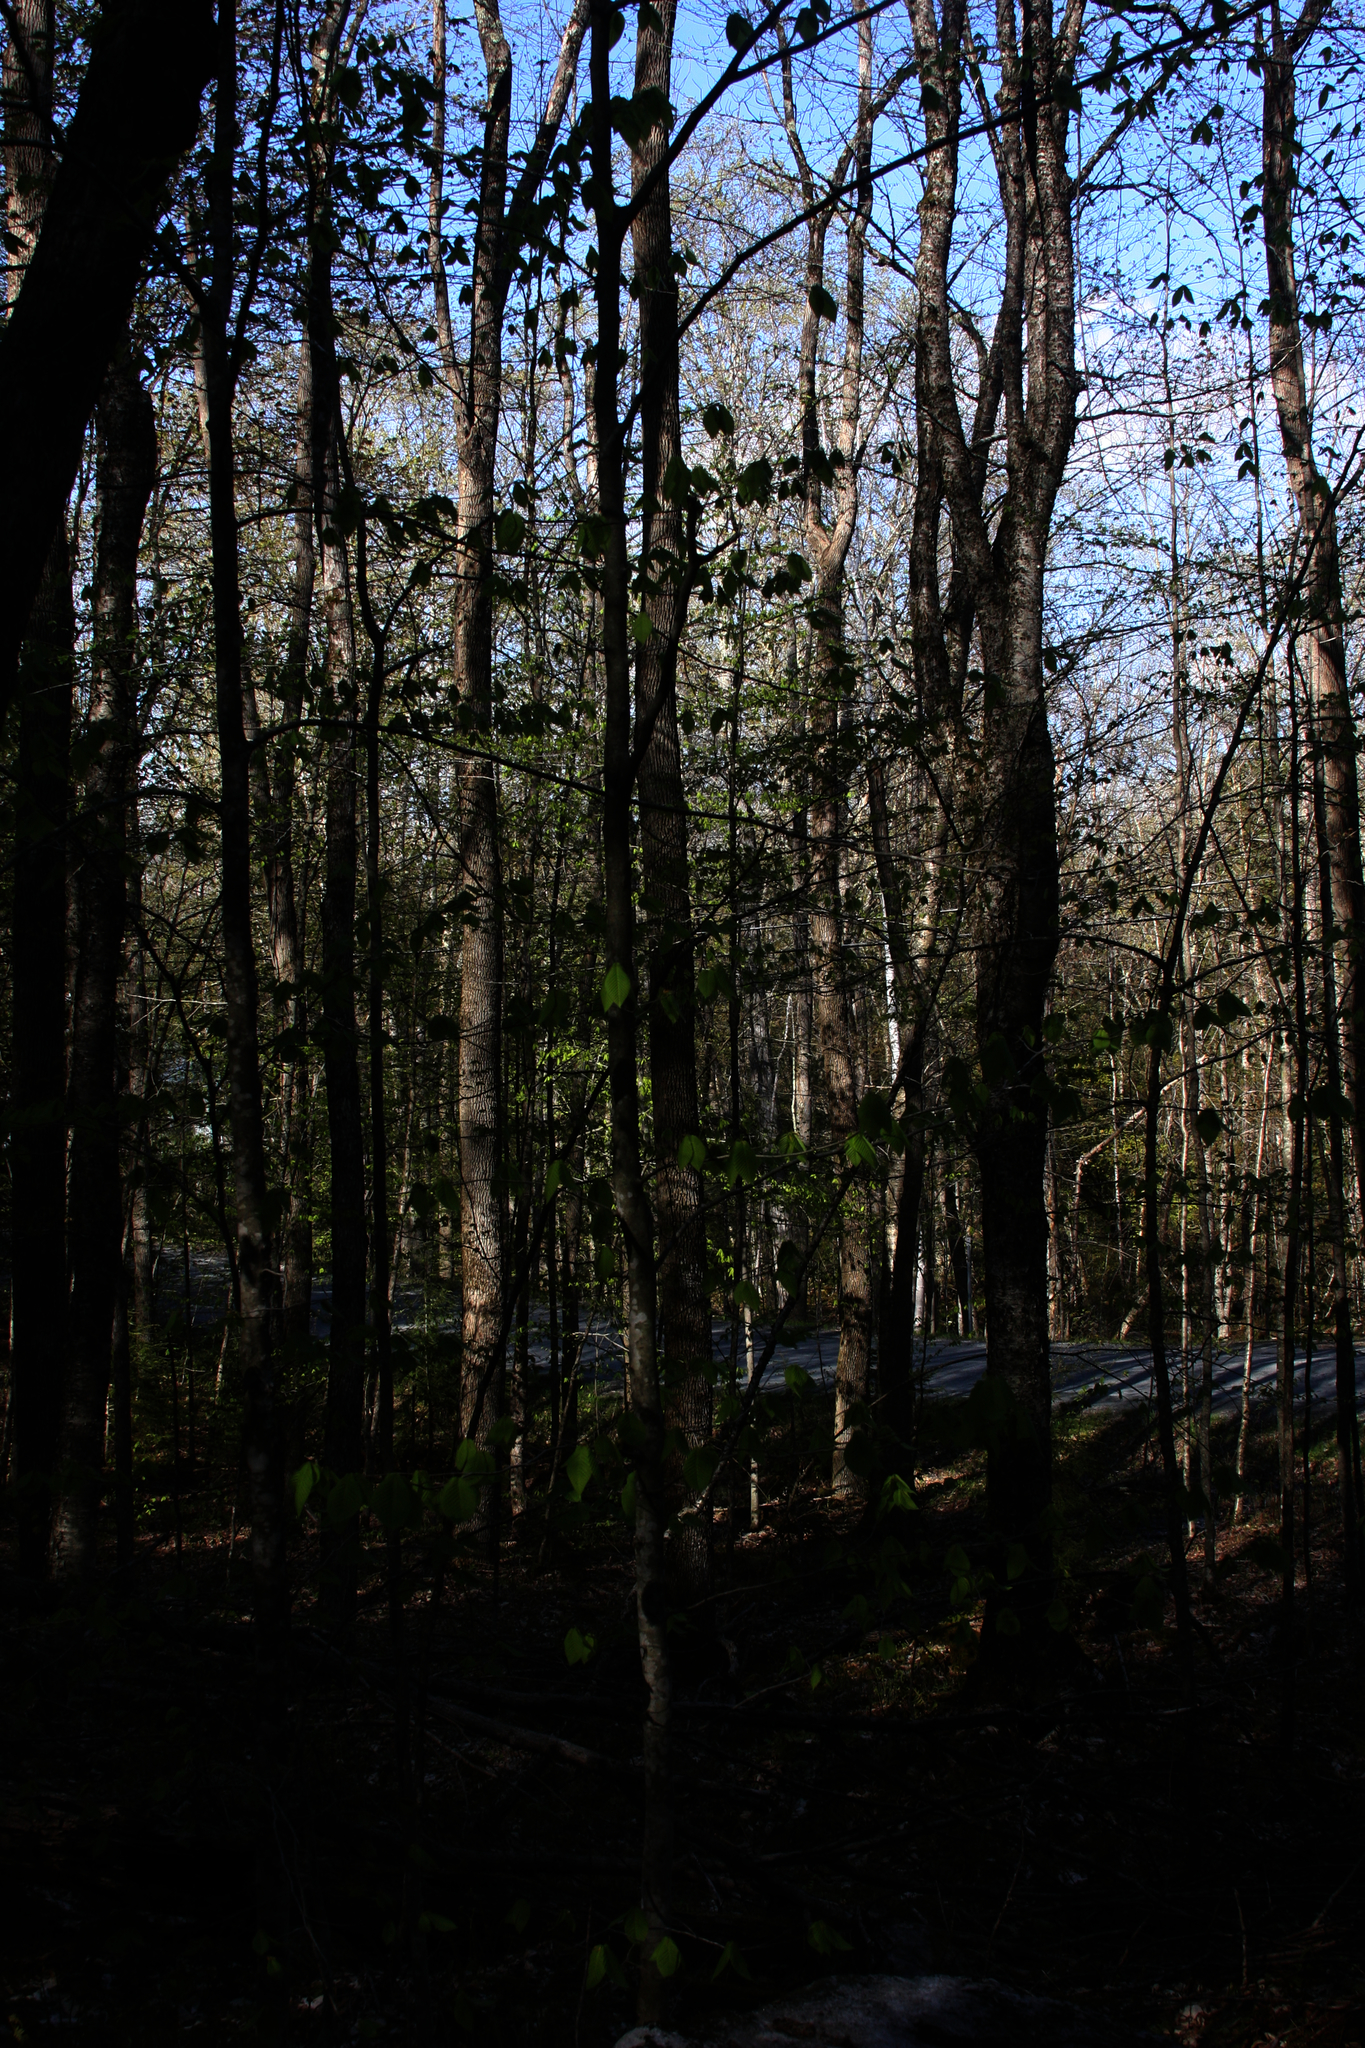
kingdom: Plantae
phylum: Tracheophyta
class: Magnoliopsida
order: Fagales
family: Fagaceae
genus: Fagus
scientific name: Fagus grandifolia
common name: American beech
